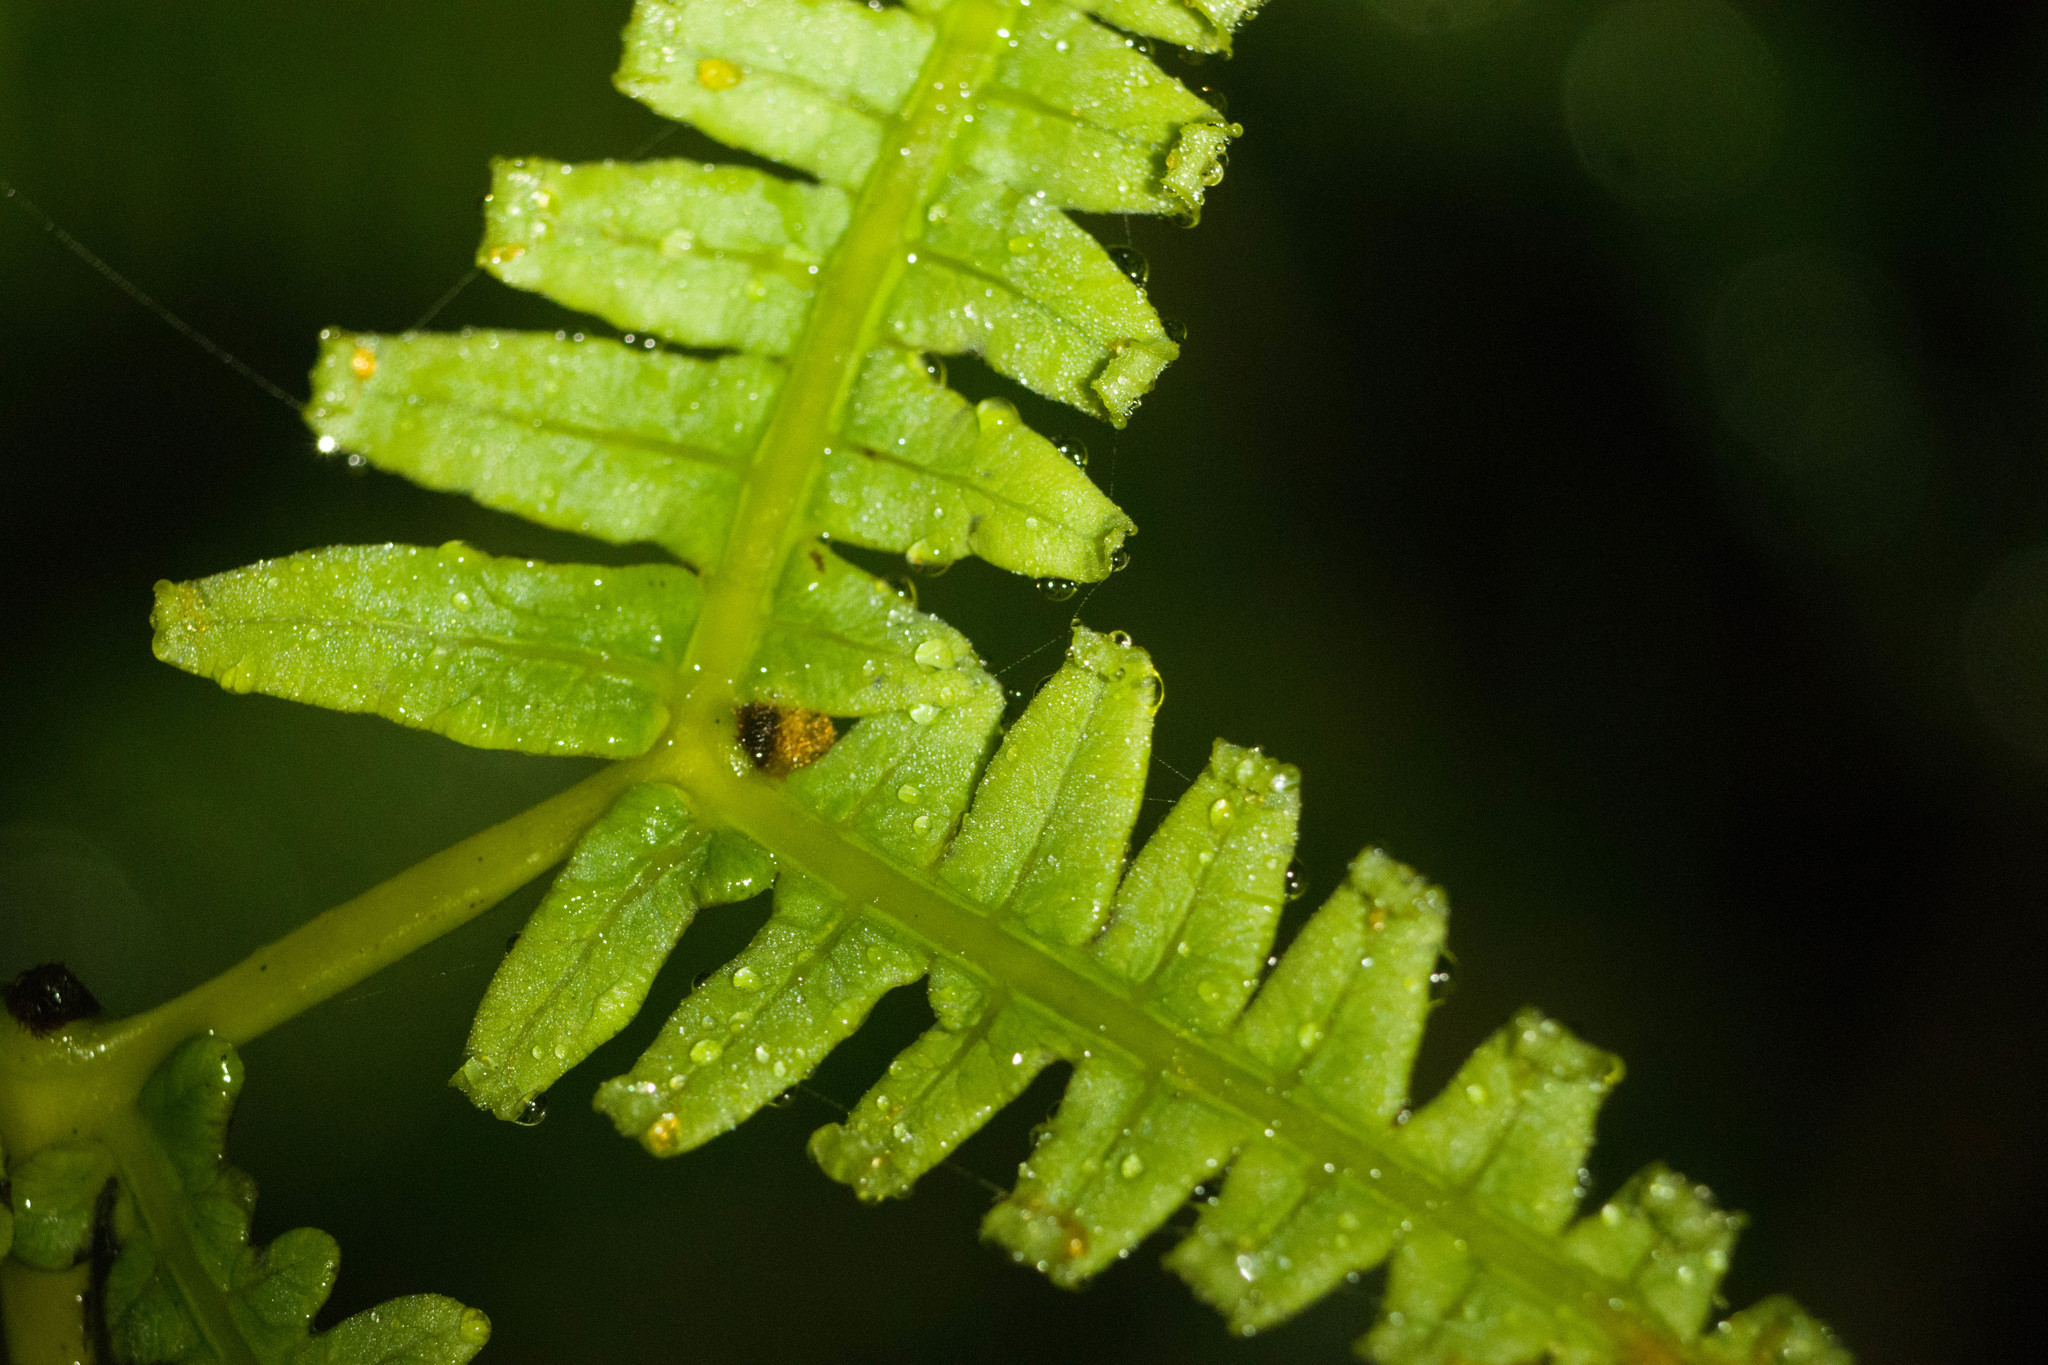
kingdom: Plantae
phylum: Tracheophyta
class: Polypodiopsida
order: Gleicheniales
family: Gleicheniaceae
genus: Dicranopteris
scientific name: Dicranopteris linearis
